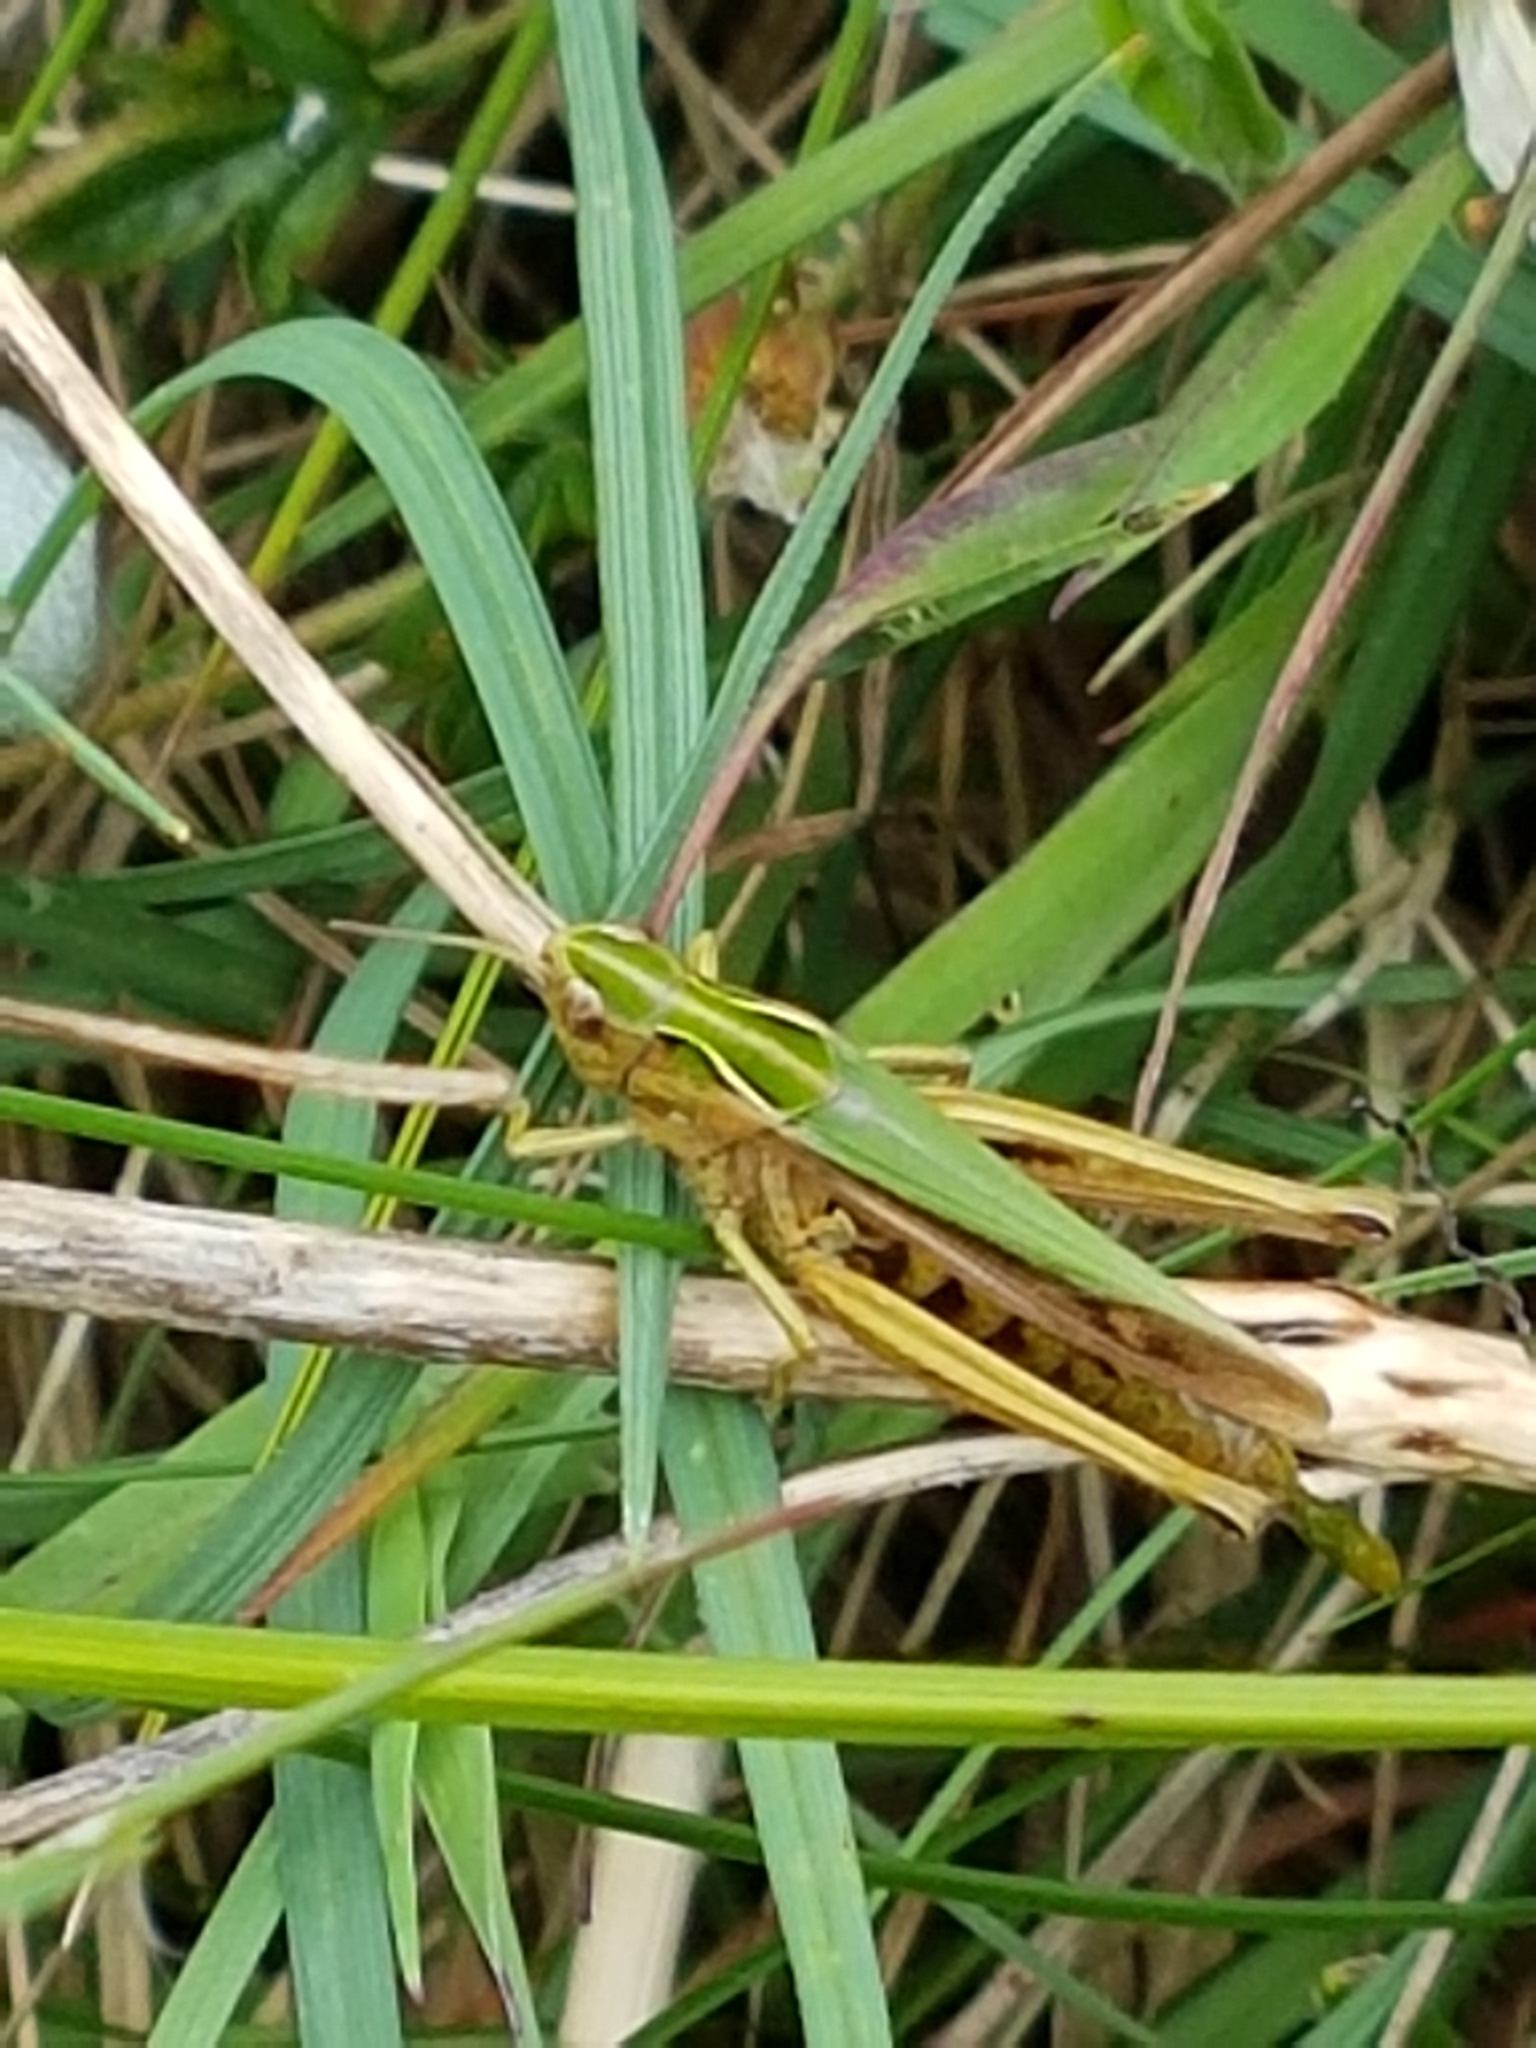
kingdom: Animalia
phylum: Arthropoda
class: Insecta
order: Orthoptera
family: Acrididae
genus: Omocestus
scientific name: Omocestus viridulus
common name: Common green grasshopper
